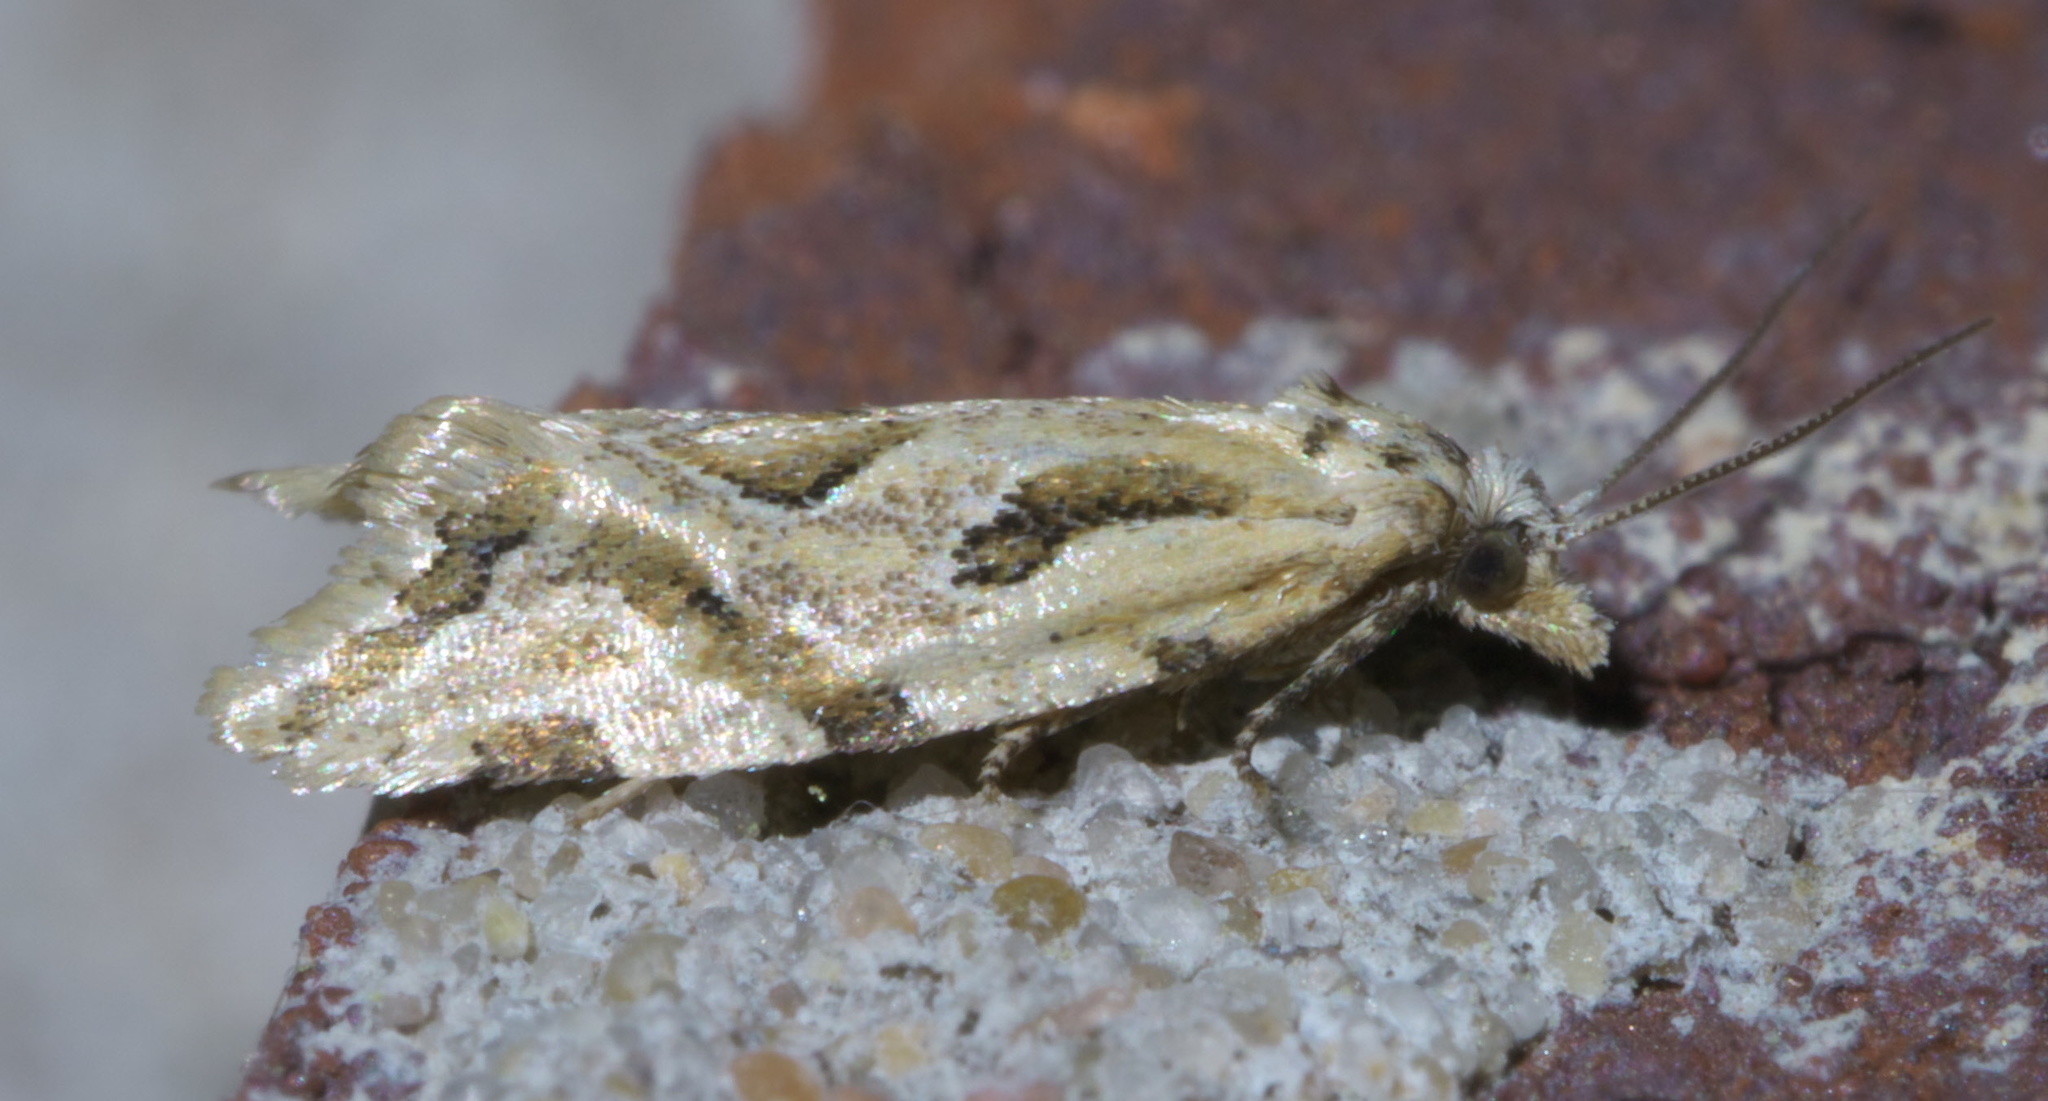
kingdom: Animalia
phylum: Arthropoda
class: Insecta
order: Lepidoptera
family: Tortricidae
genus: Aethes
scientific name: Aethes heleniana
